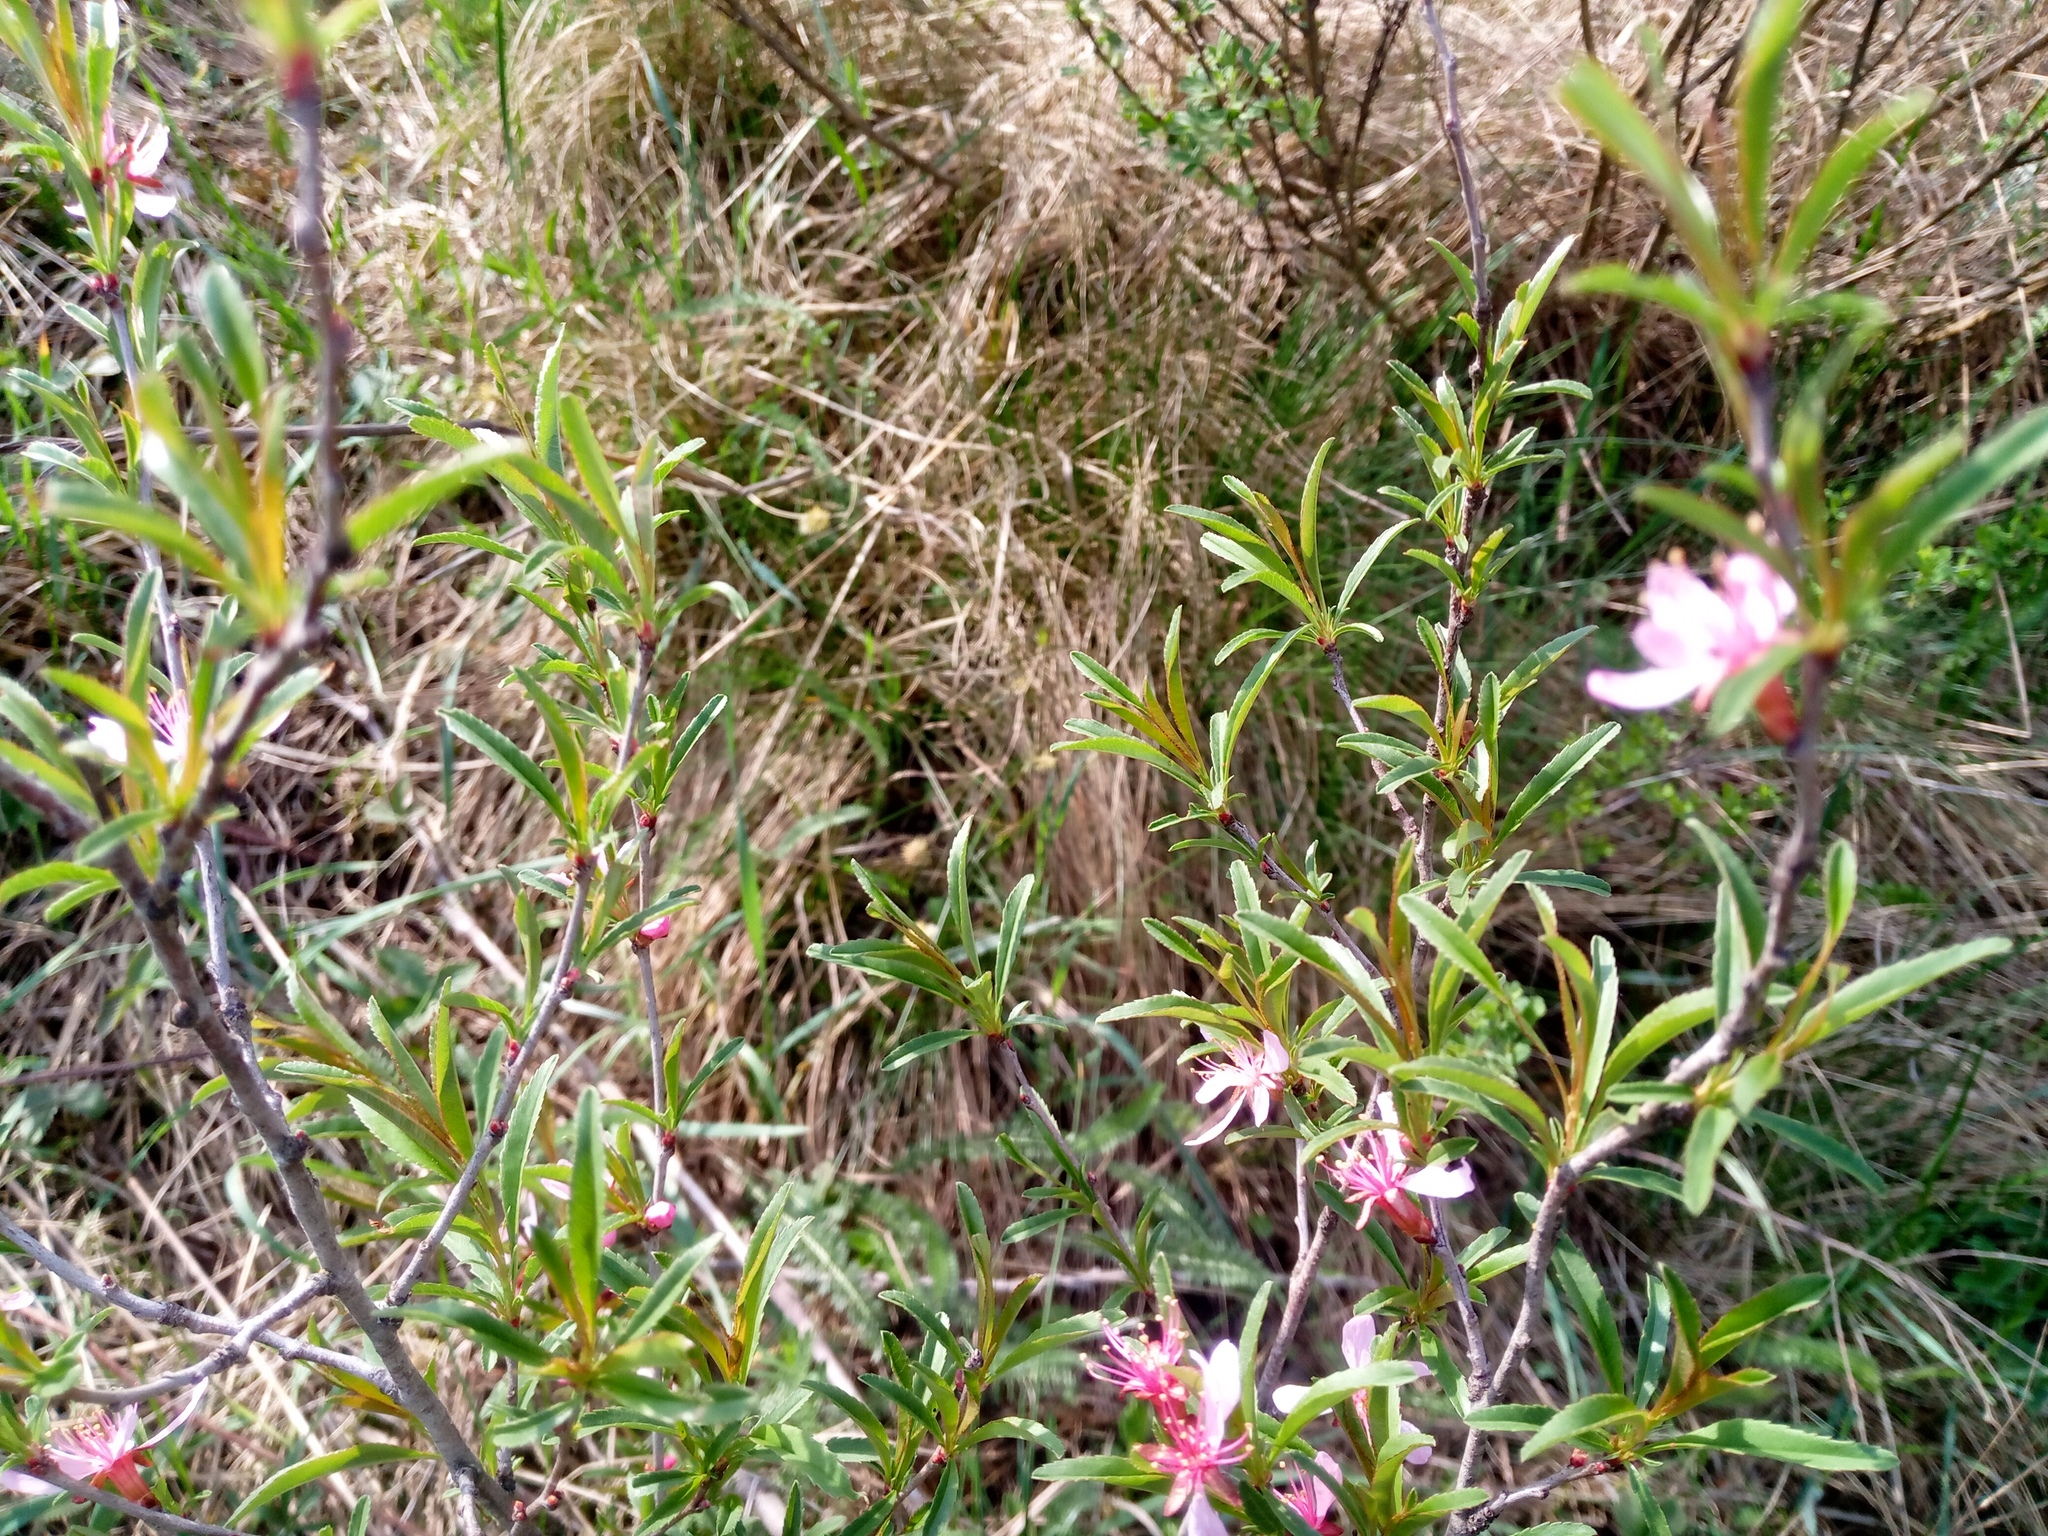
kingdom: Plantae
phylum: Tracheophyta
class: Magnoliopsida
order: Rosales
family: Rosaceae
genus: Prunus
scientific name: Prunus tenella
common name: Dwarf russian almond
